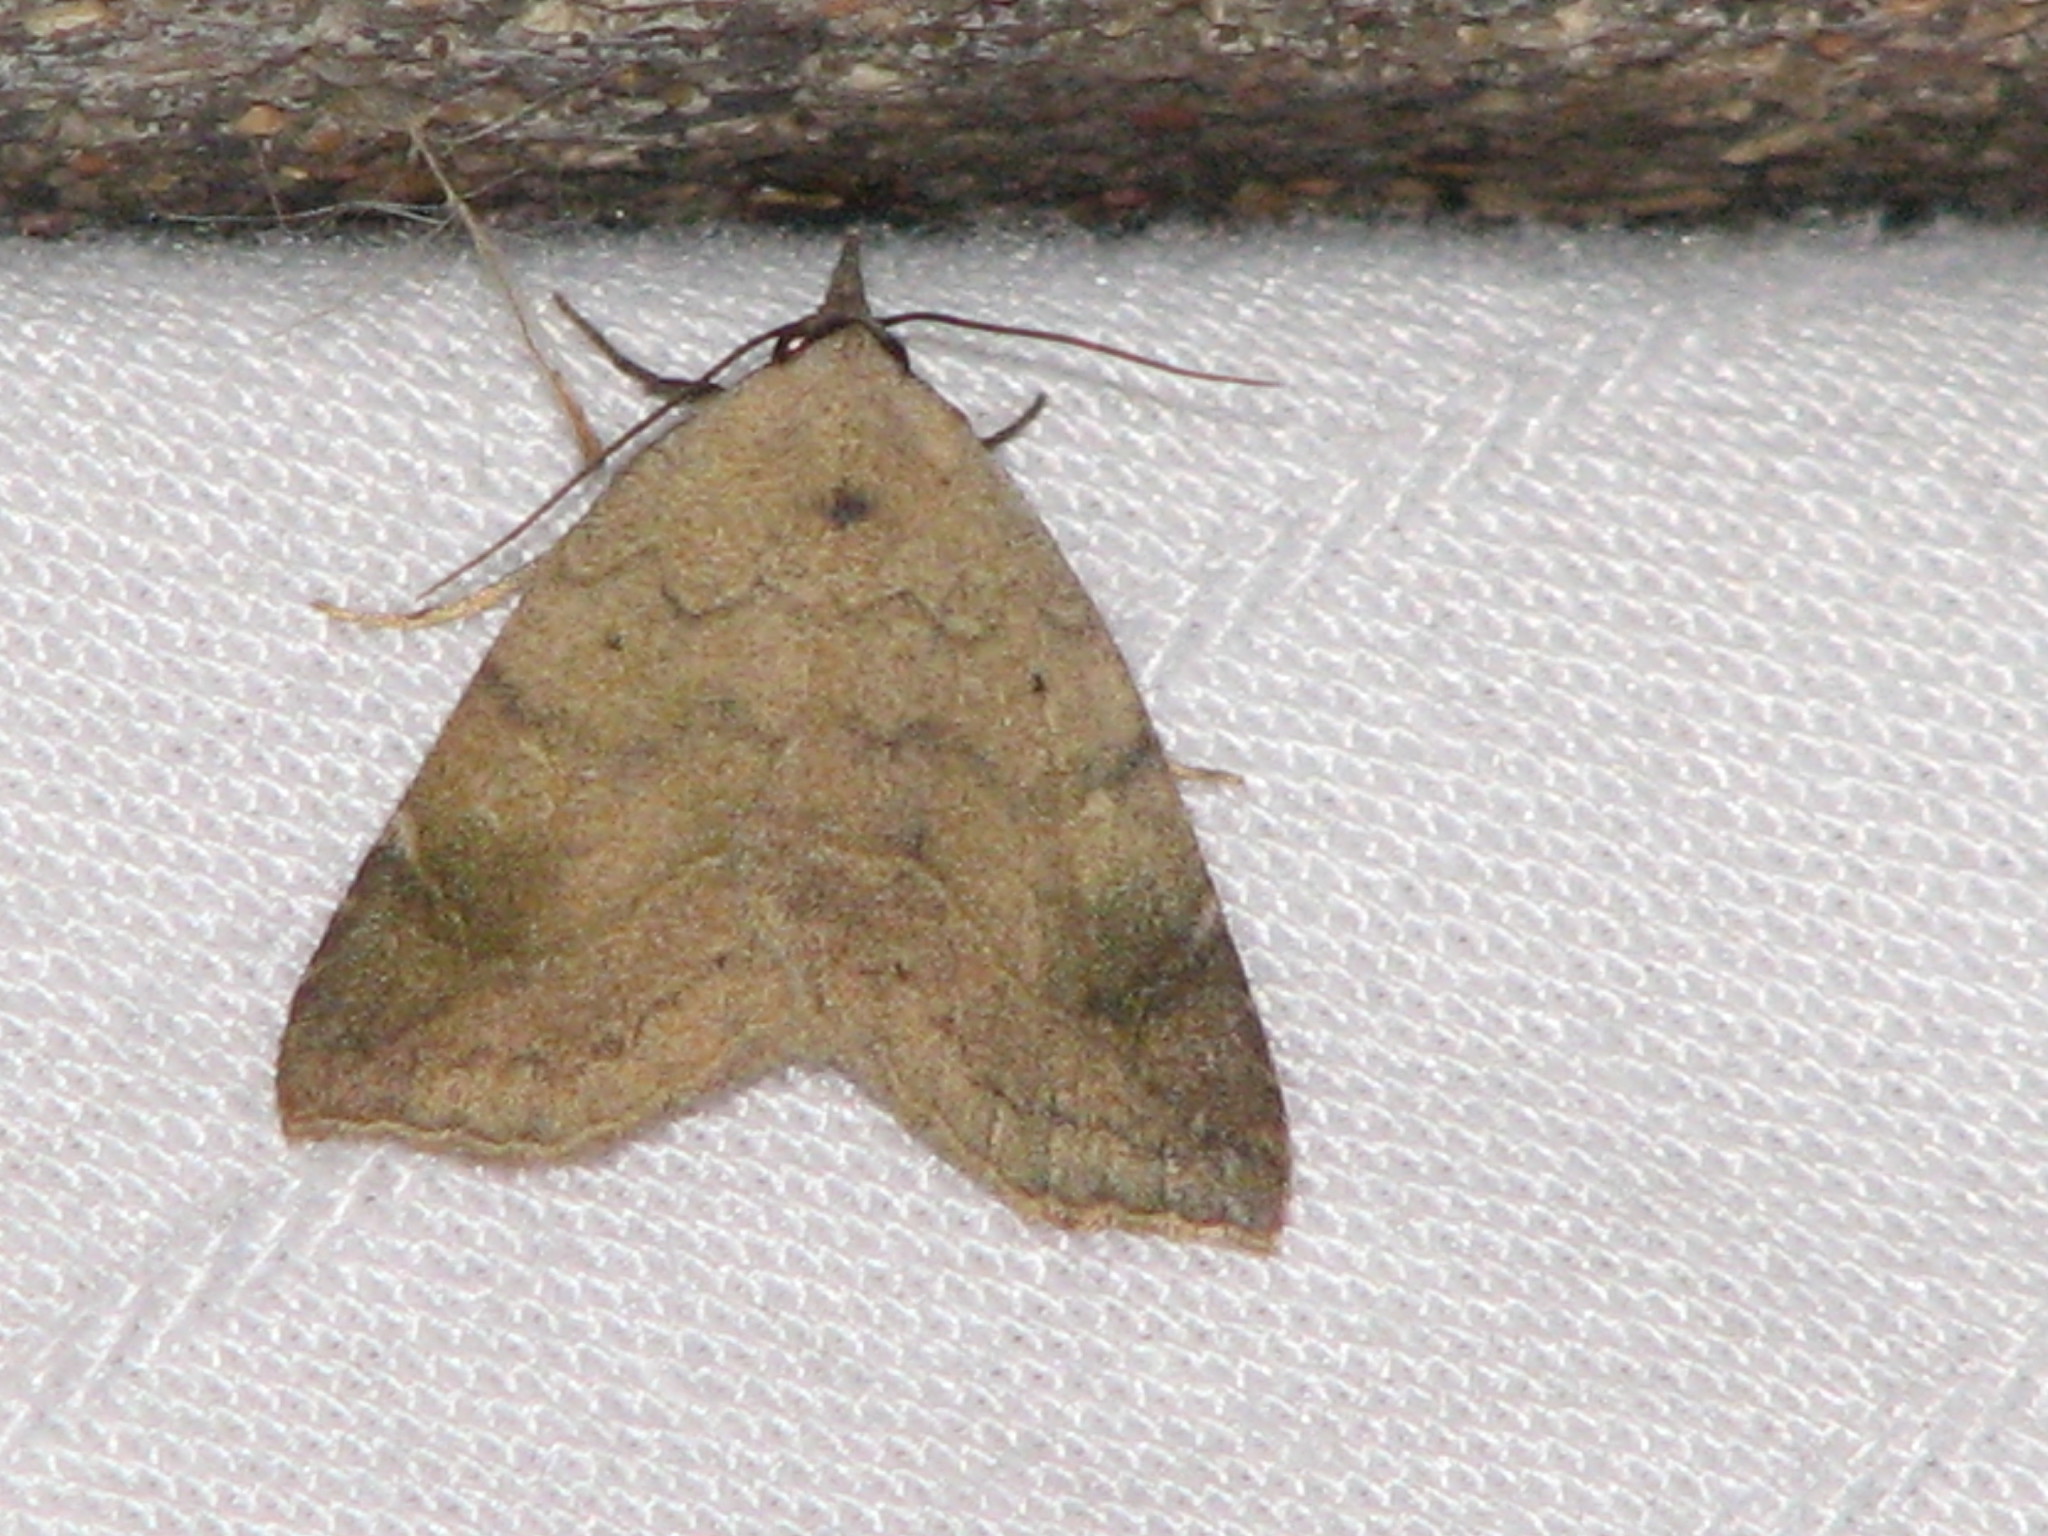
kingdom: Animalia
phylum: Arthropoda
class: Insecta
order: Lepidoptera
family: Erebidae
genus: Isogona
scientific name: Isogona texana
